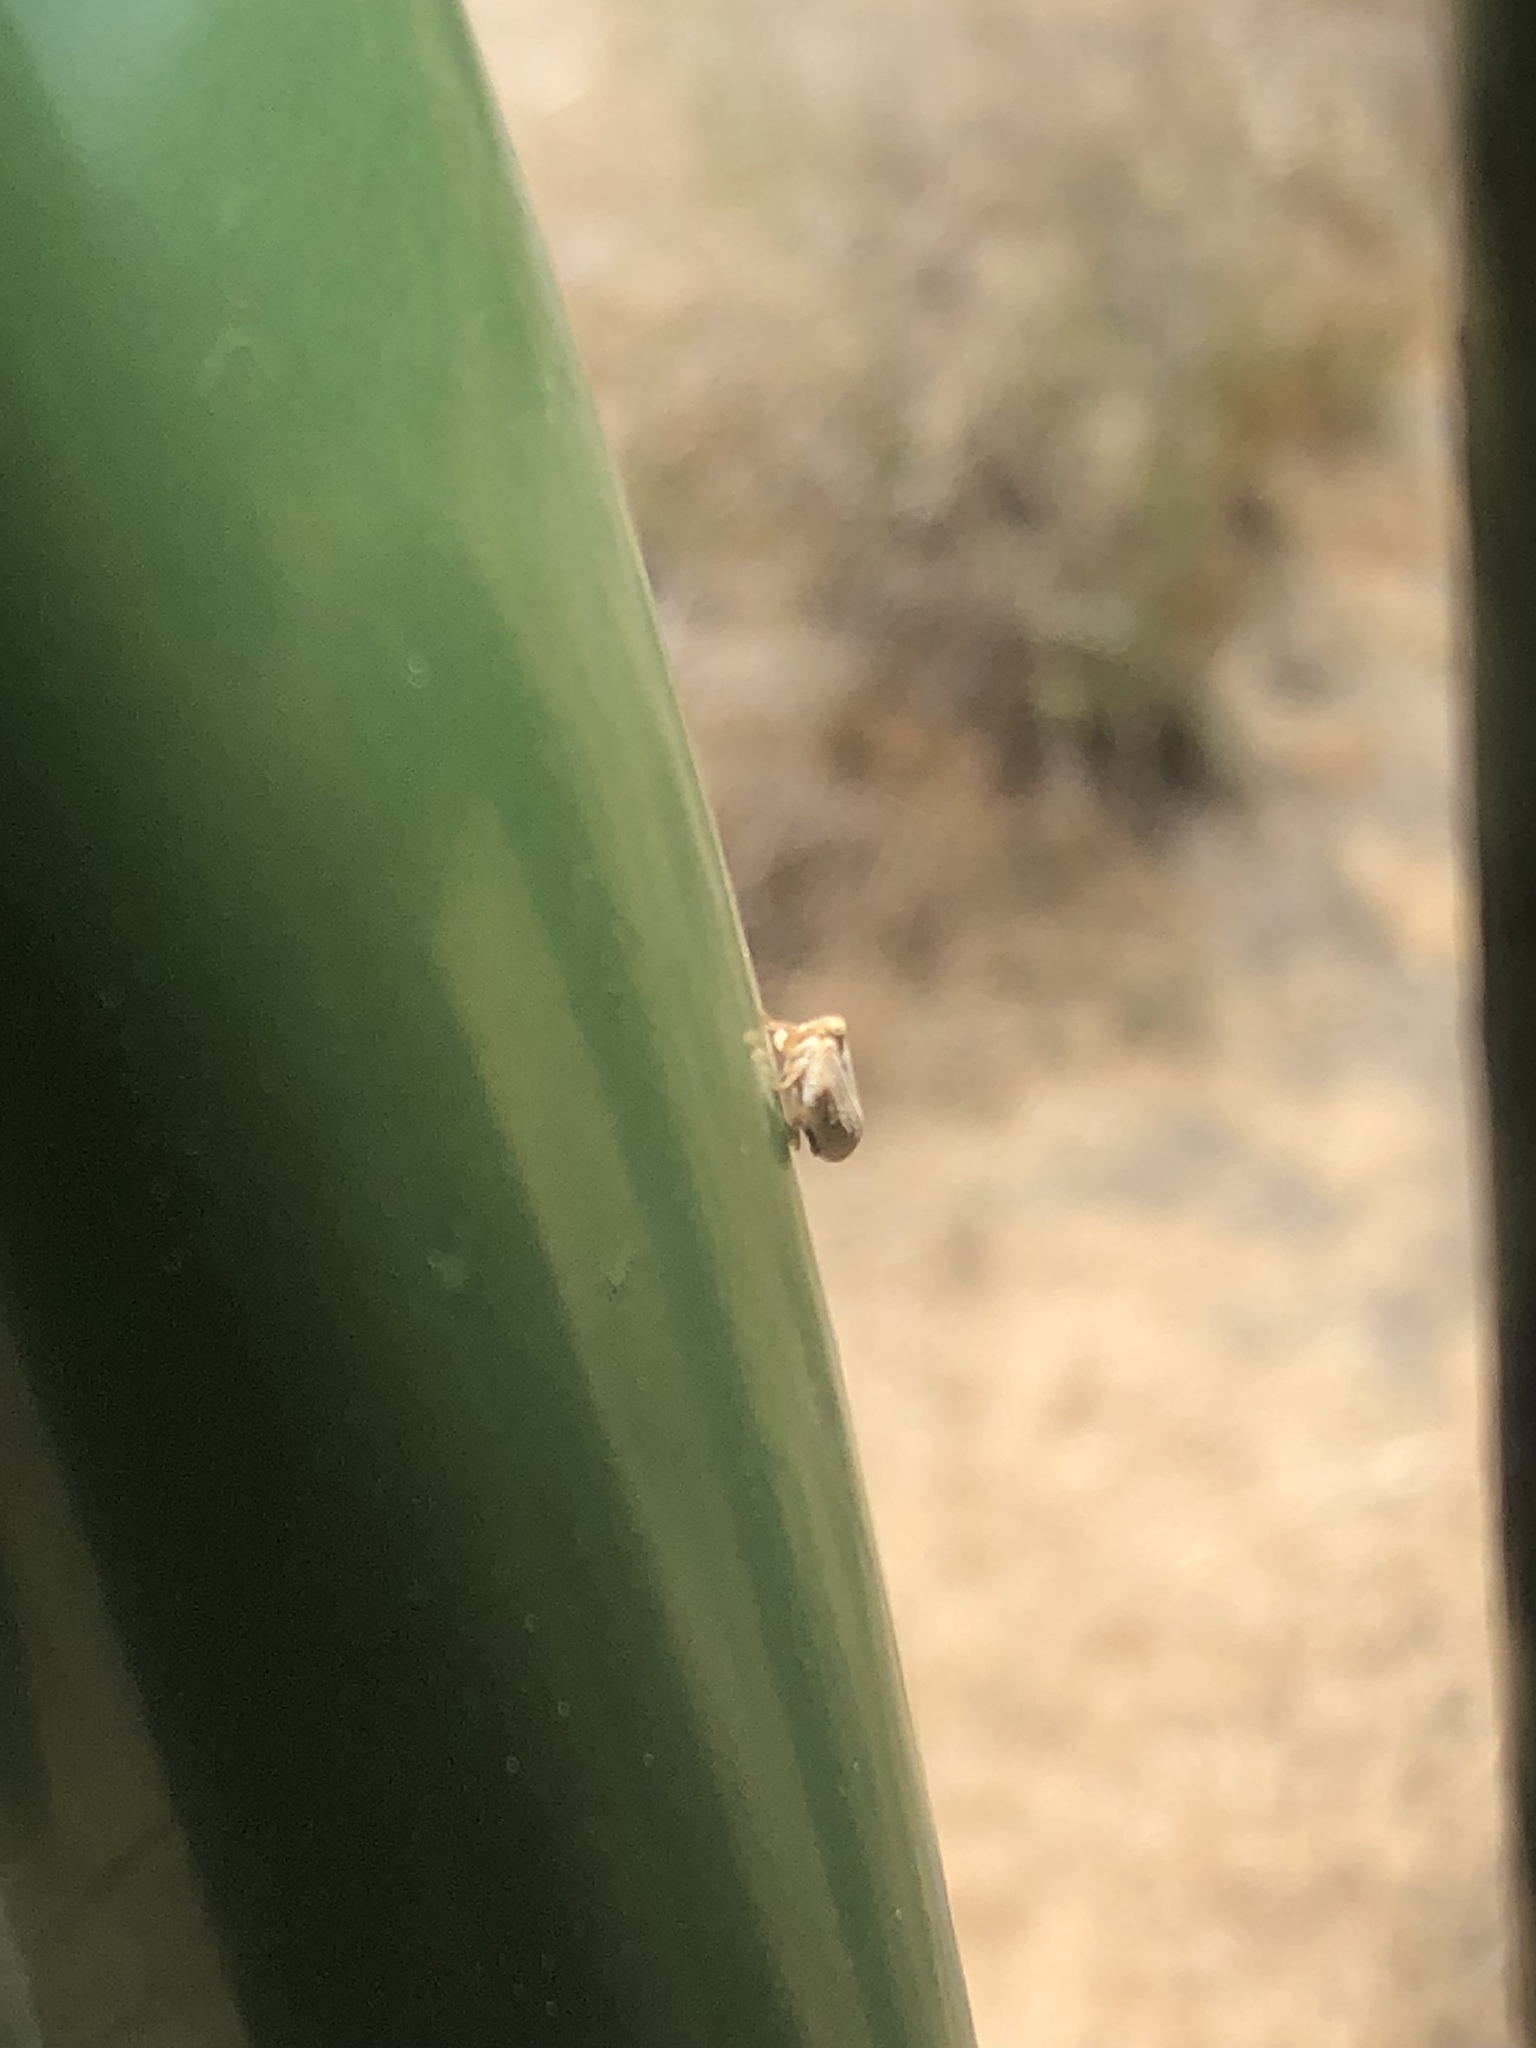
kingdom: Animalia
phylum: Arthropoda
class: Insecta
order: Hemiptera
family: Issidae
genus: Agalmatium
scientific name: Agalmatium bilobum
